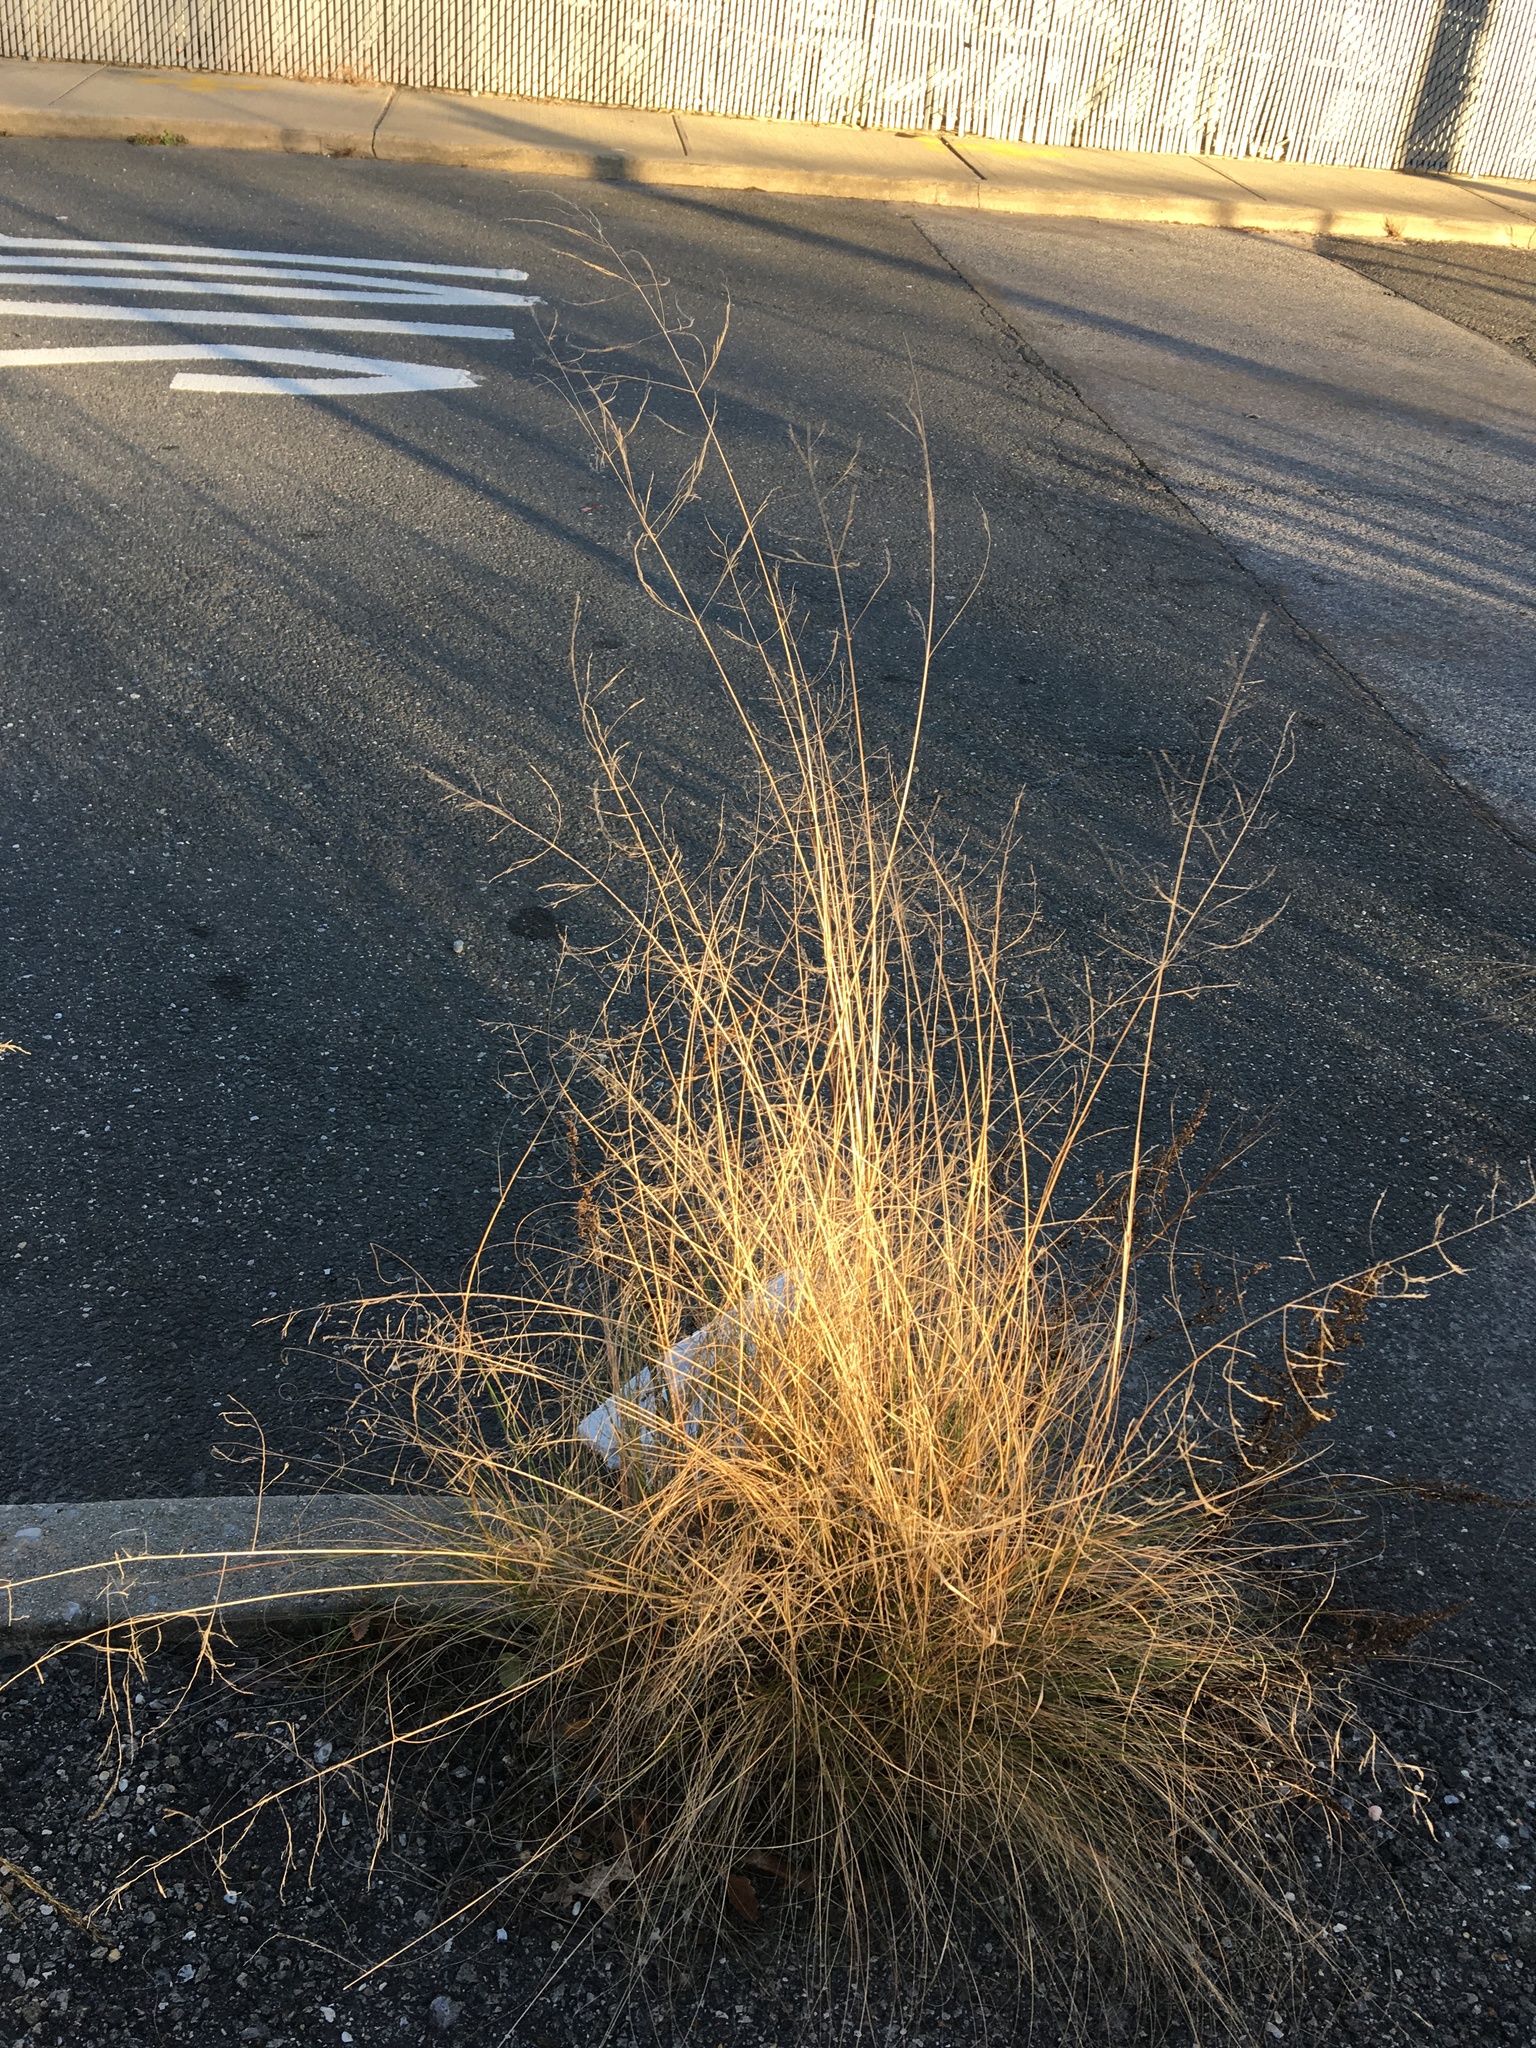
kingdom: Plantae
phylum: Tracheophyta
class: Liliopsida
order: Poales
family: Poaceae
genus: Eragrostis
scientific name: Eragrostis curvula
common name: African love-grass
